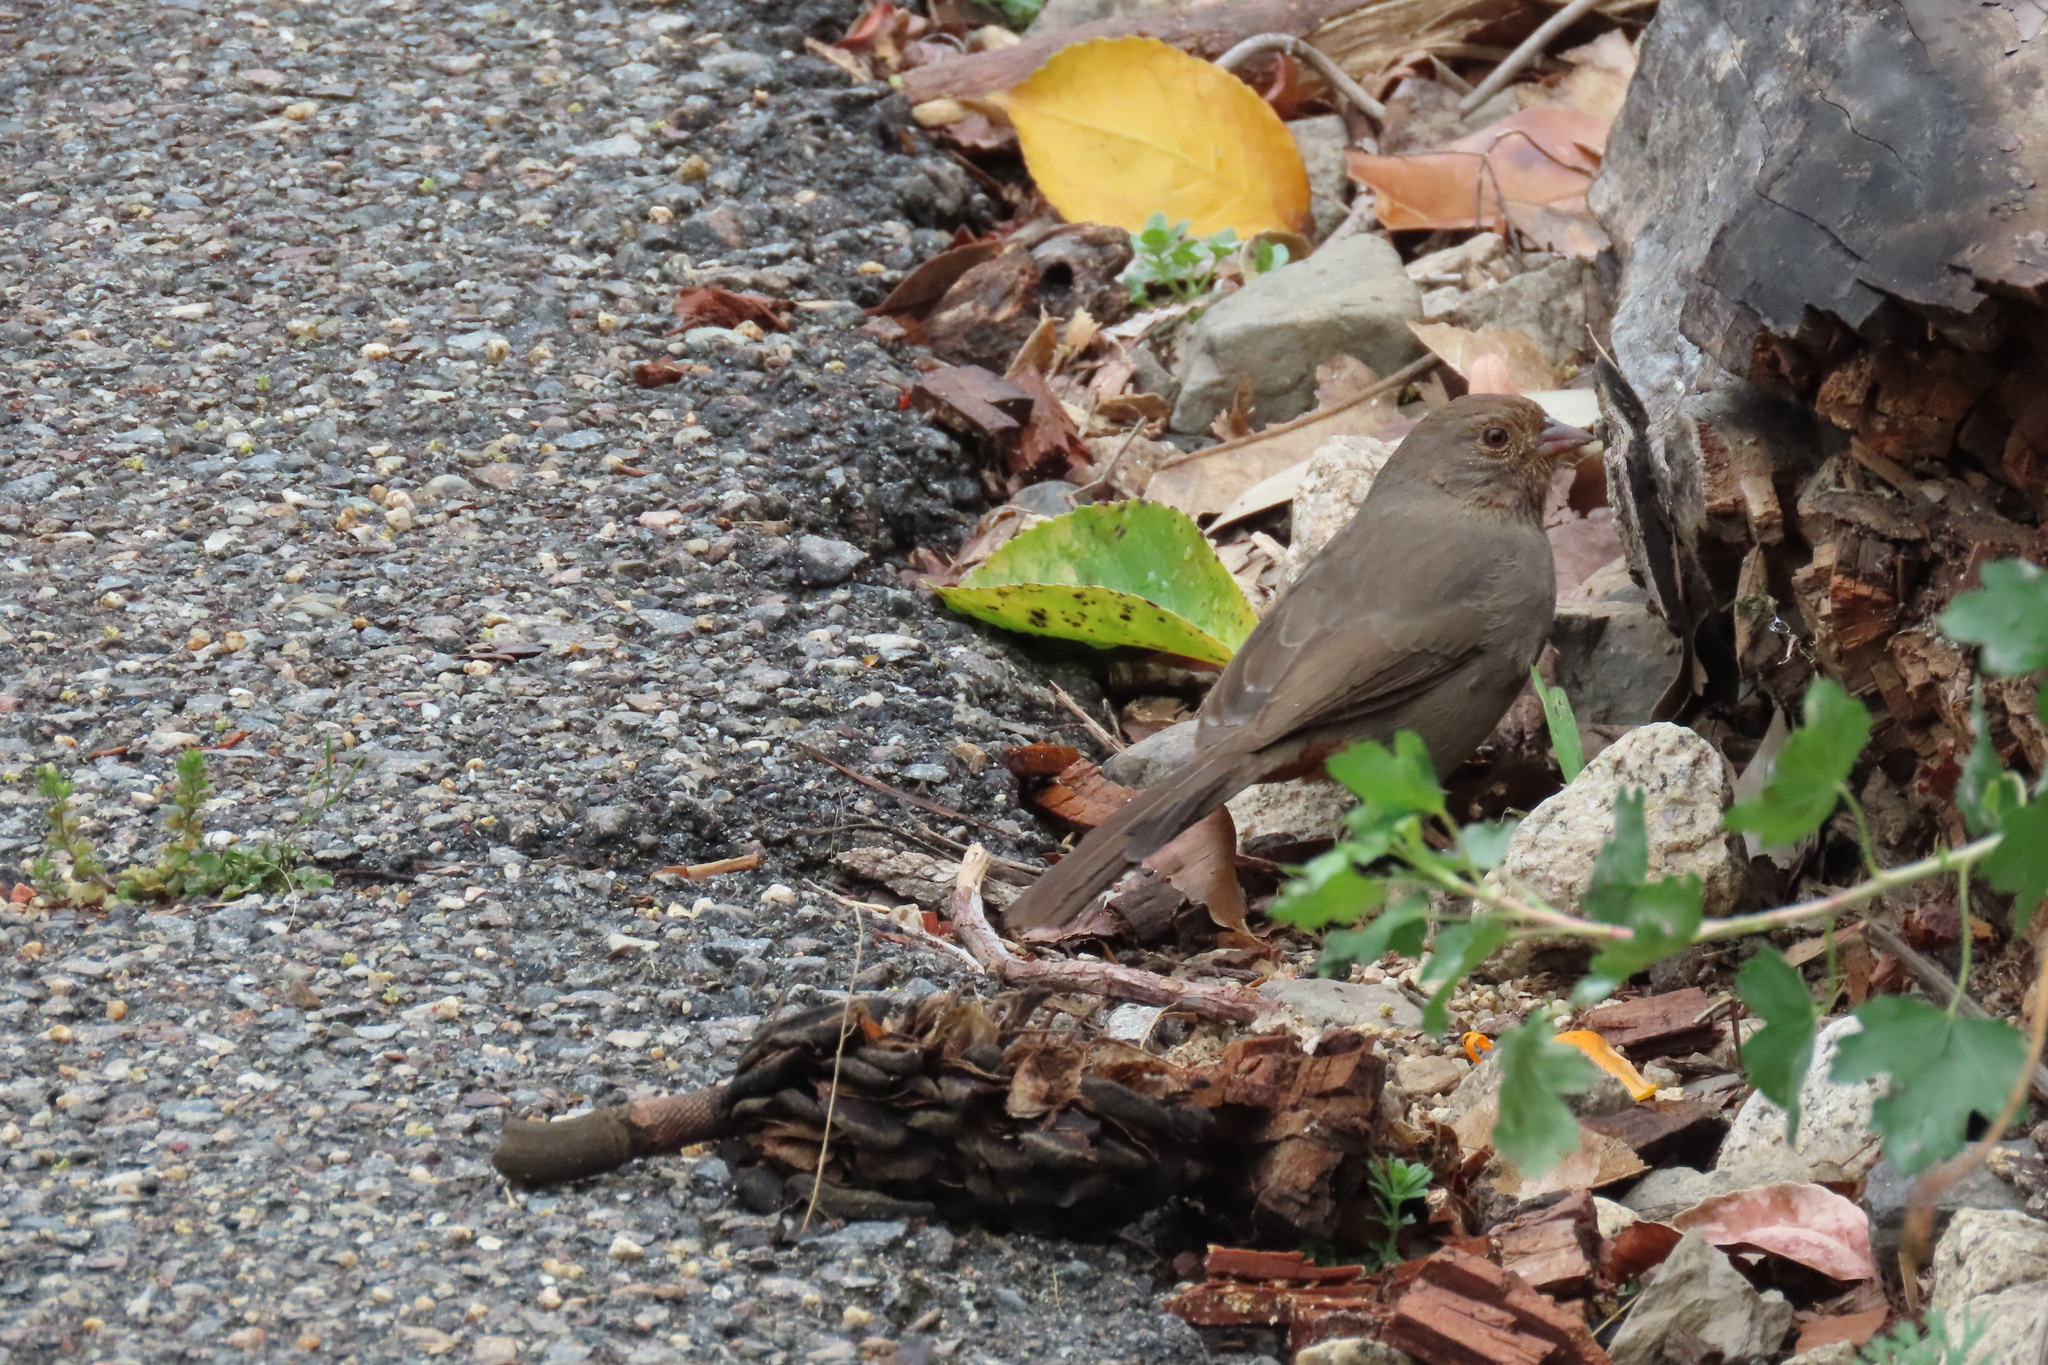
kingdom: Animalia
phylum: Chordata
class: Aves
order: Passeriformes
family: Passerellidae
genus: Melozone
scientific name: Melozone crissalis
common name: California towhee
